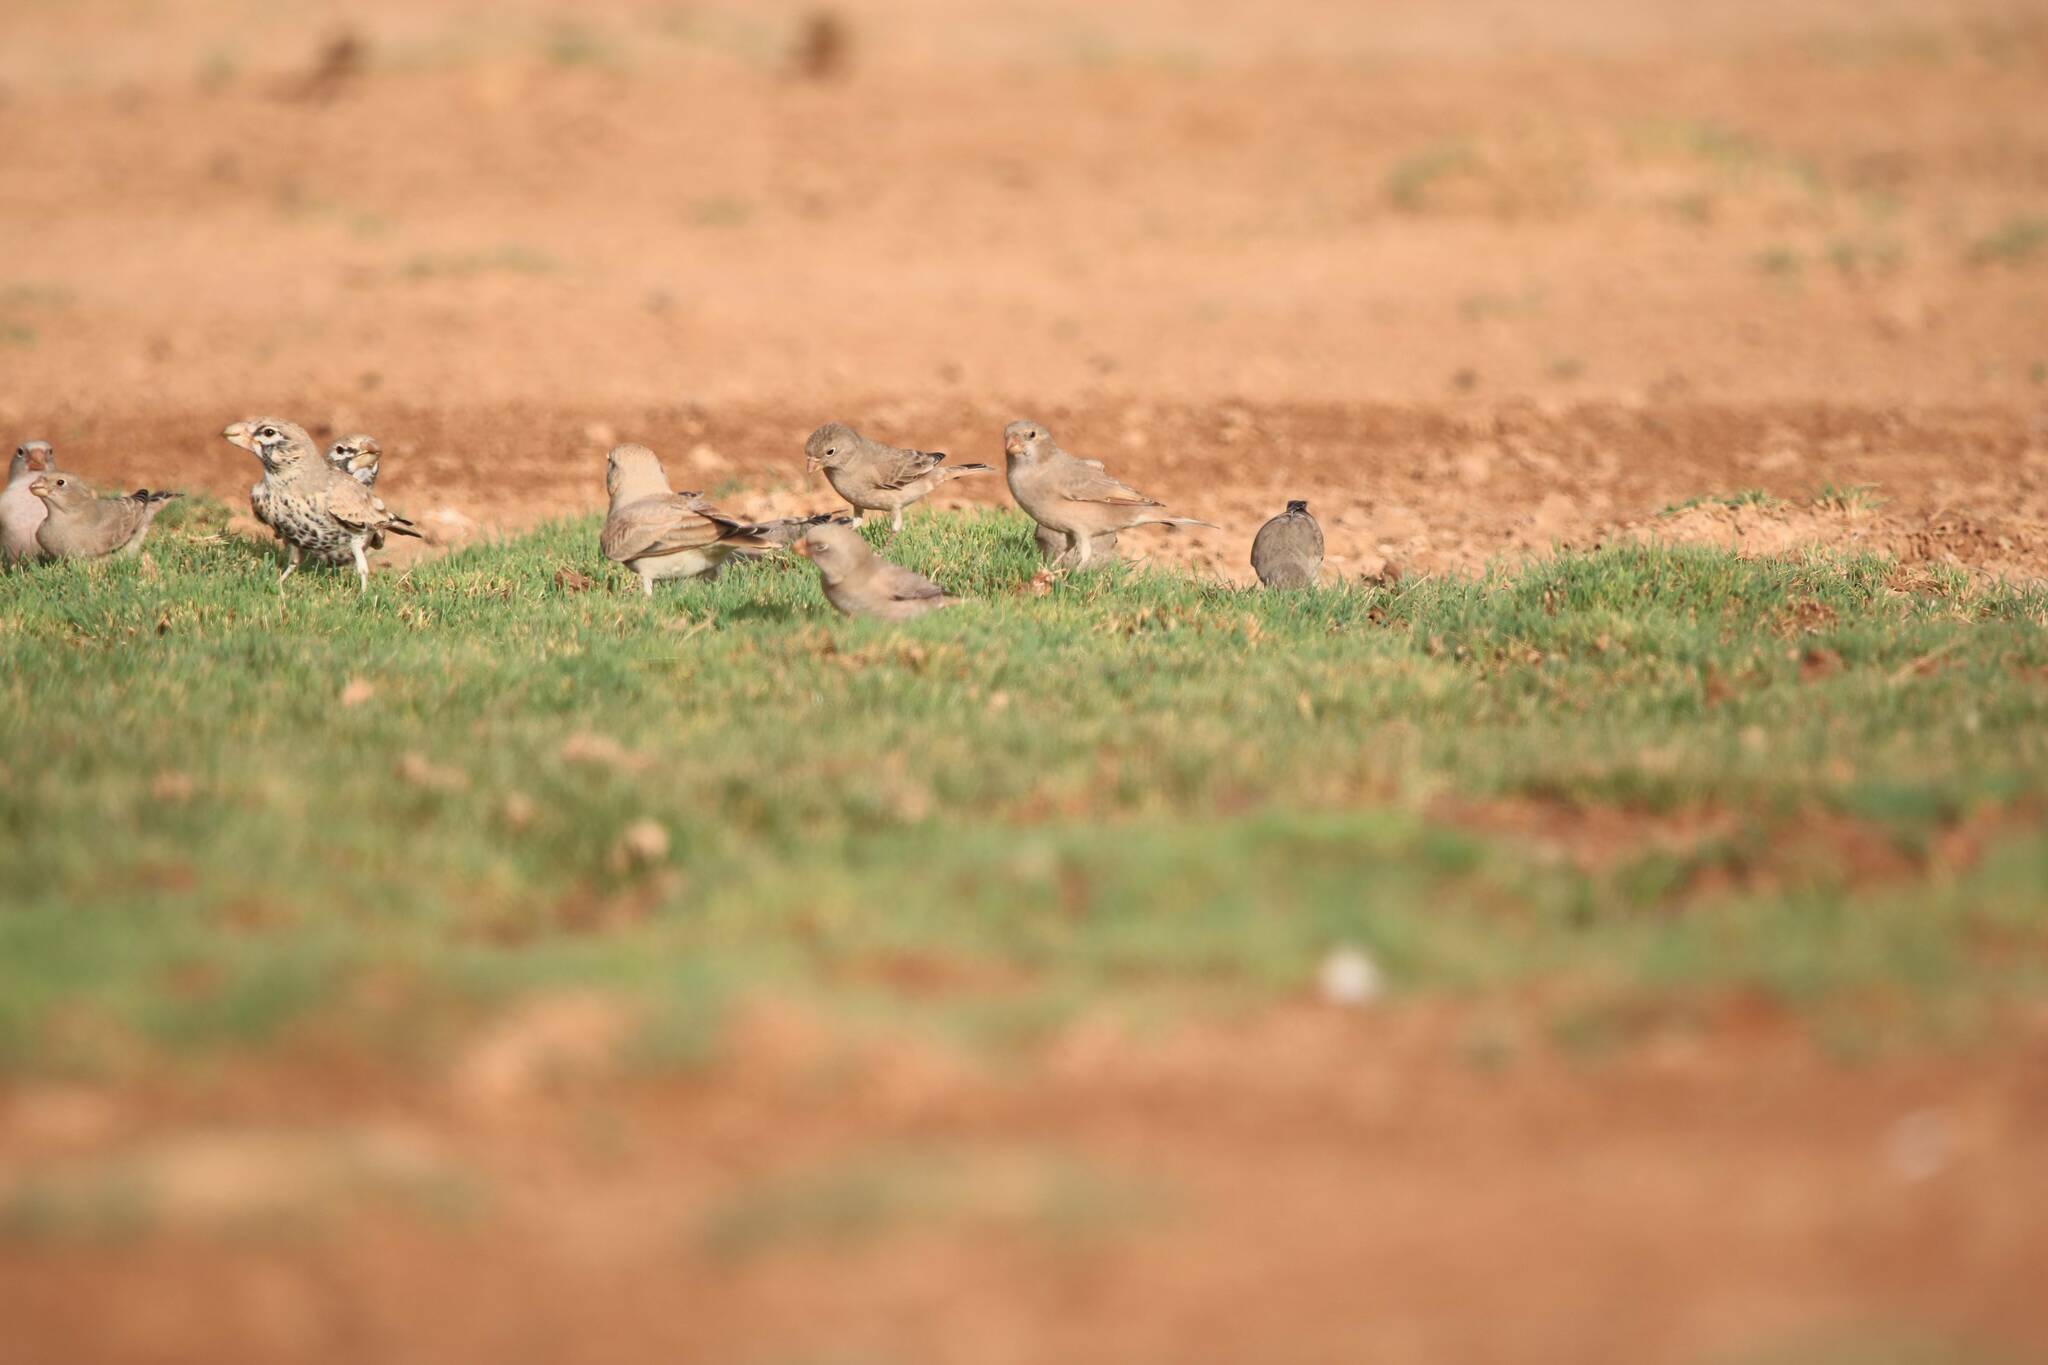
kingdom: Animalia
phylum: Chordata
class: Aves
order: Passeriformes
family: Fringillidae
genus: Bucanetes
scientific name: Bucanetes githagineus
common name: Trumpeter finch
